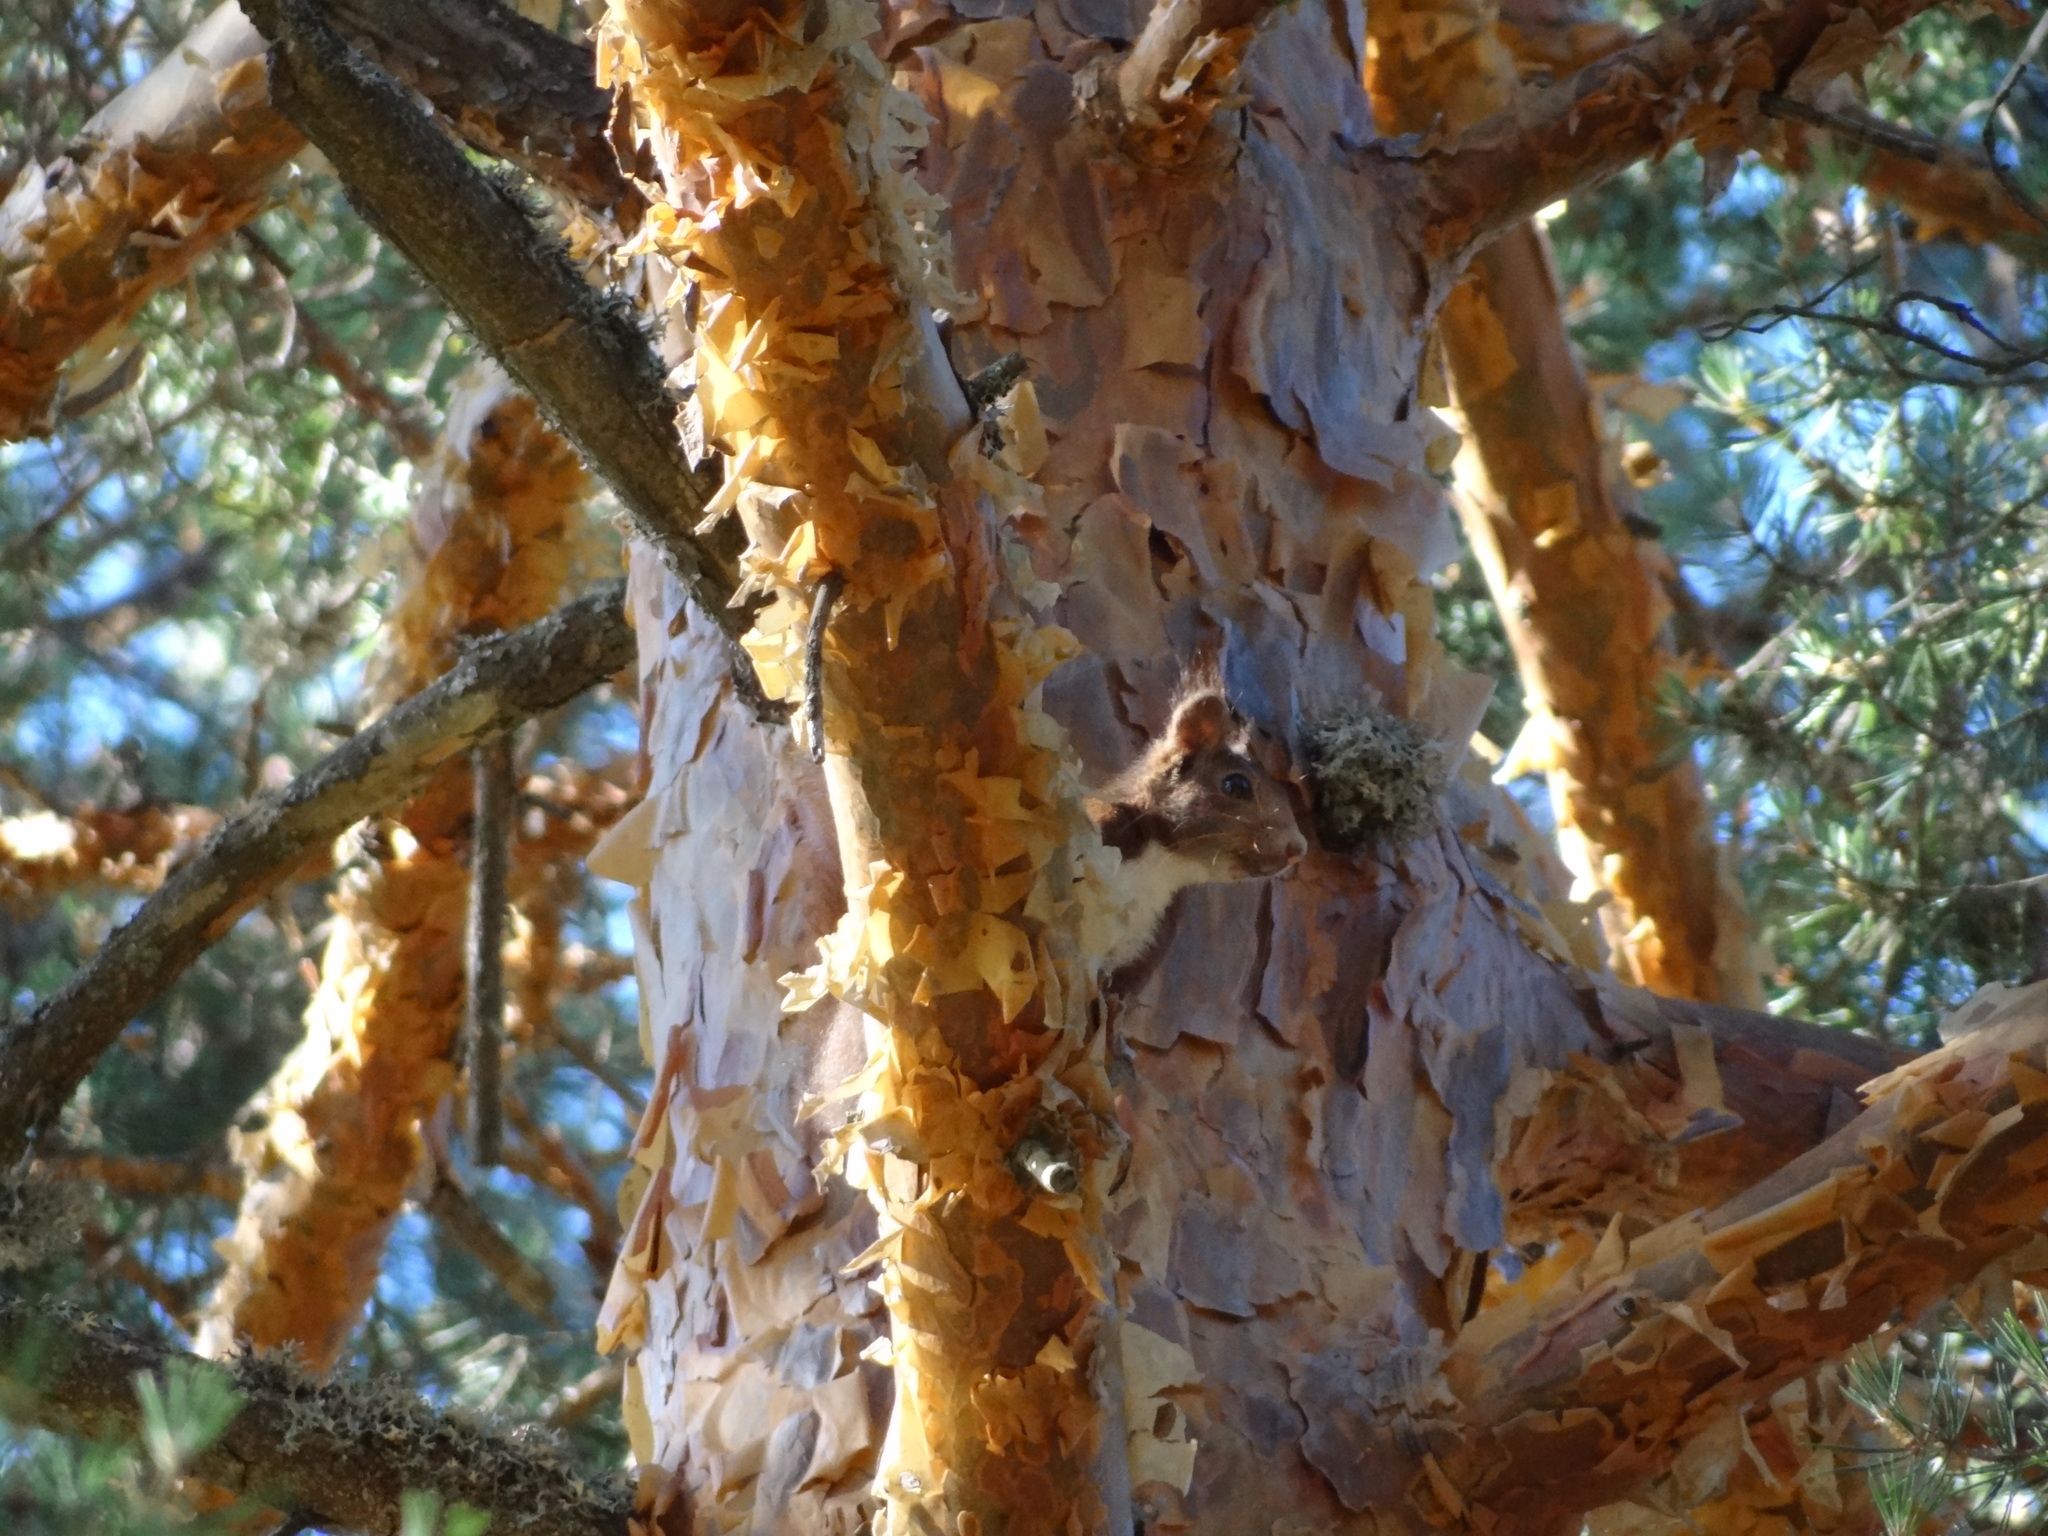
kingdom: Animalia
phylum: Chordata
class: Mammalia
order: Rodentia
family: Sciuridae
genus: Sciurus
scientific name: Sciurus vulgaris
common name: Eurasian red squirrel
